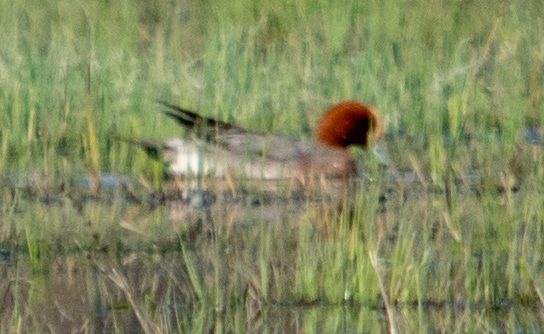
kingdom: Animalia
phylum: Chordata
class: Aves
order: Anseriformes
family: Anatidae
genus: Mareca
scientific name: Mareca penelope
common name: Eurasian wigeon
